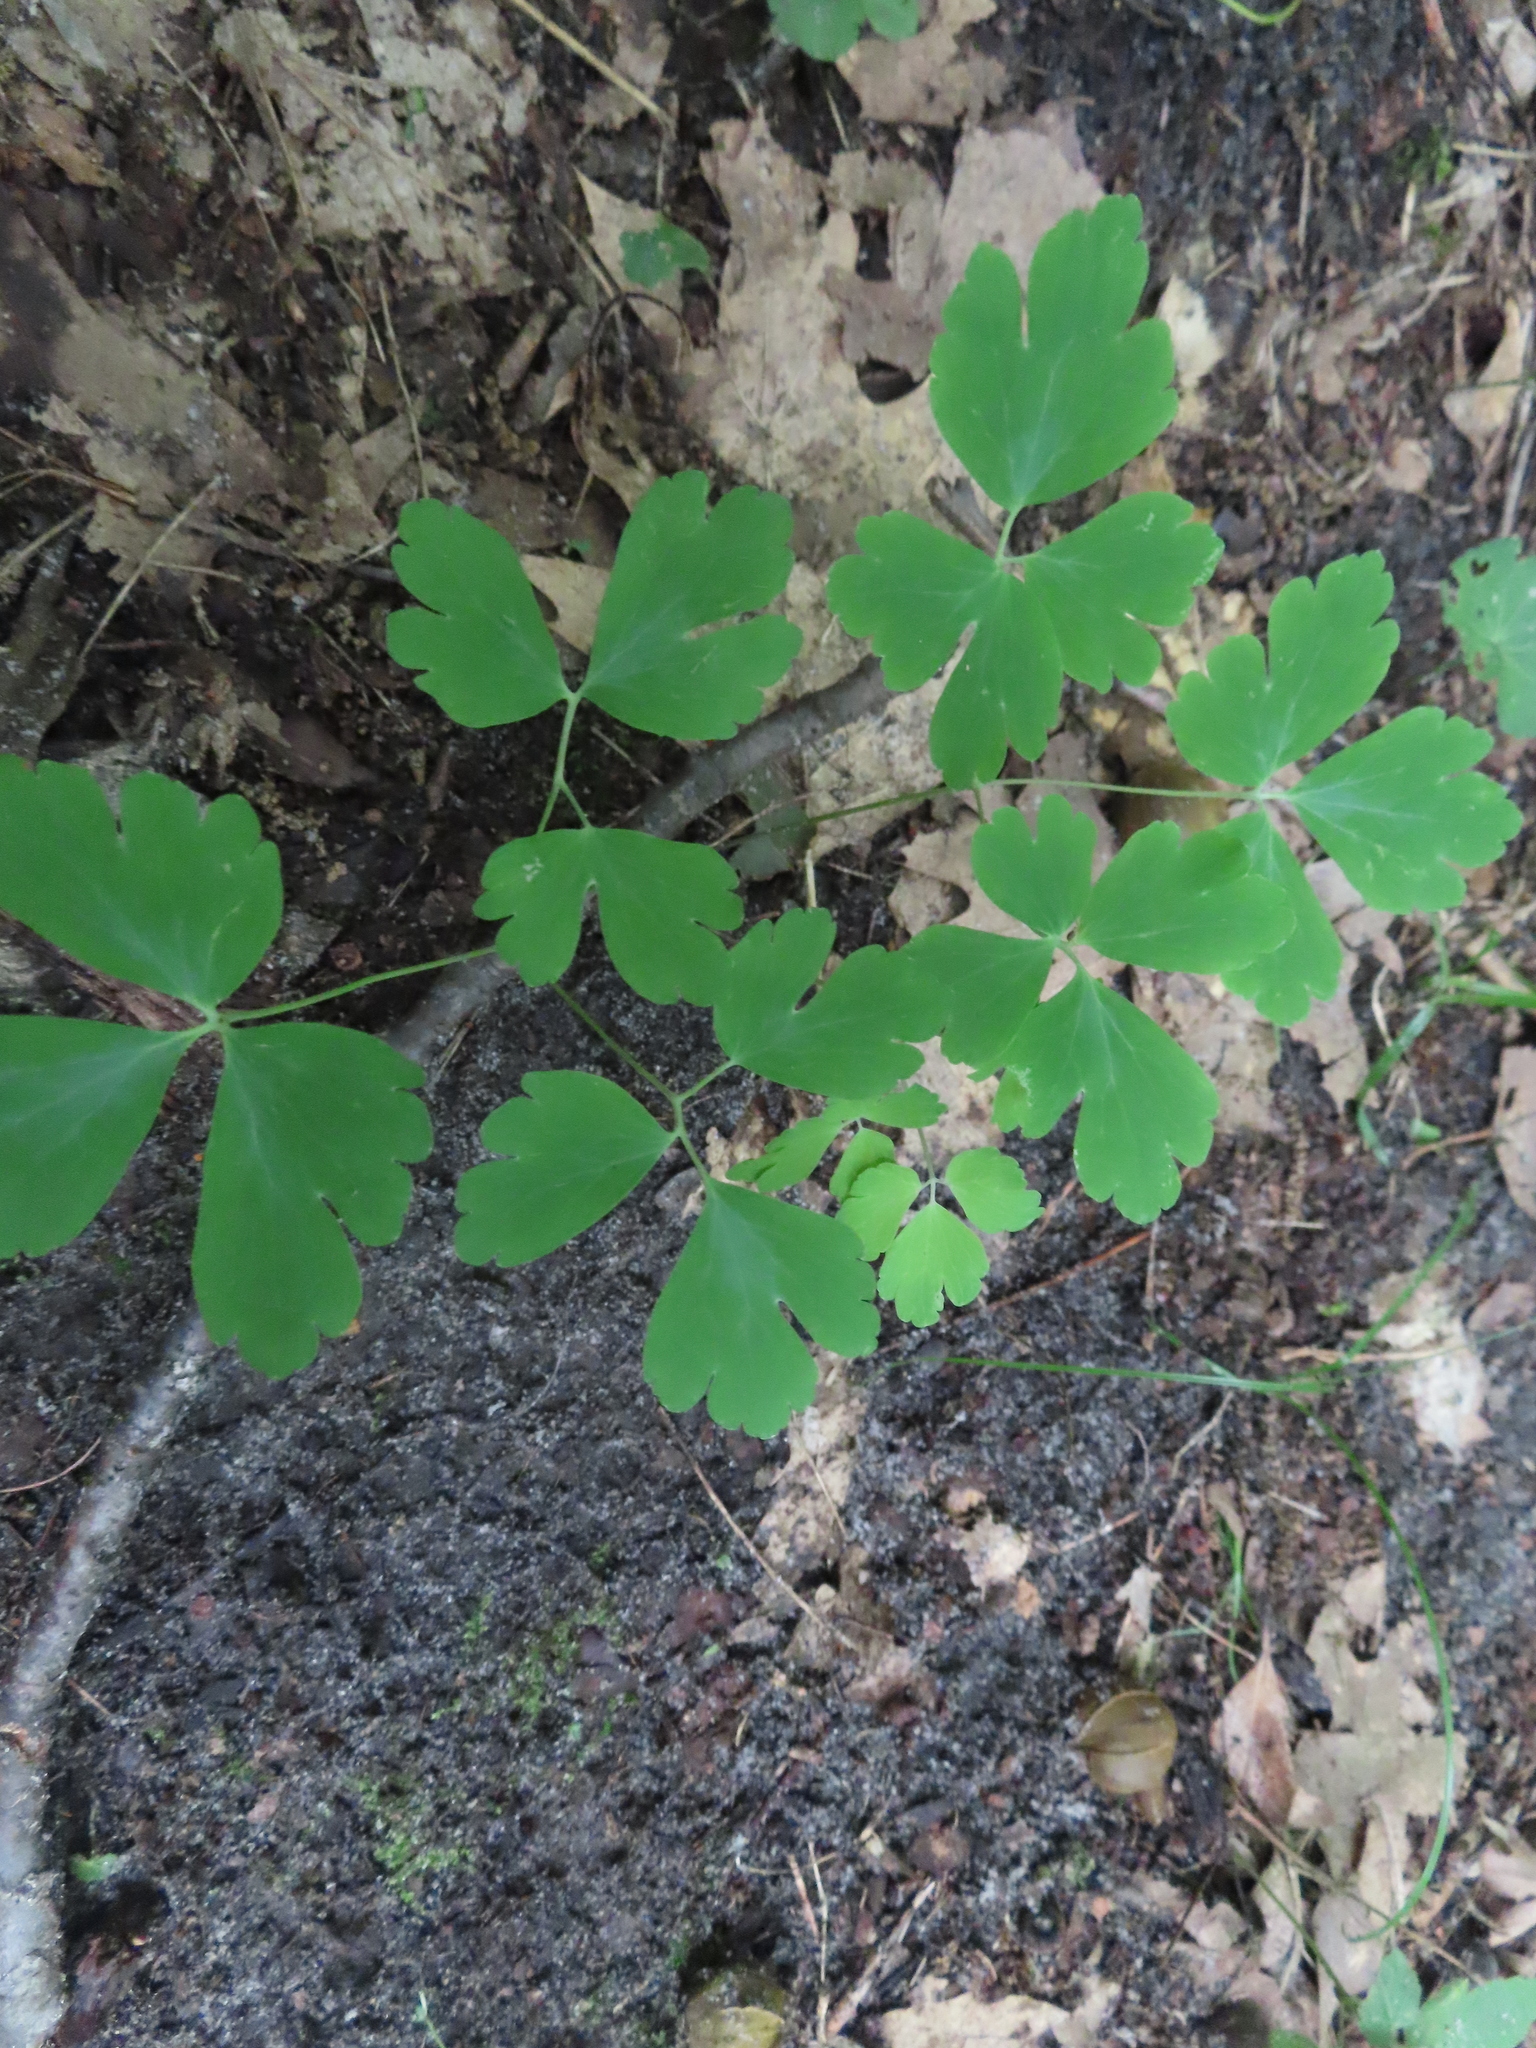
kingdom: Plantae
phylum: Tracheophyta
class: Magnoliopsida
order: Ranunculales
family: Ranunculaceae
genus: Aquilegia
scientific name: Aquilegia canadensis
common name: American columbine
